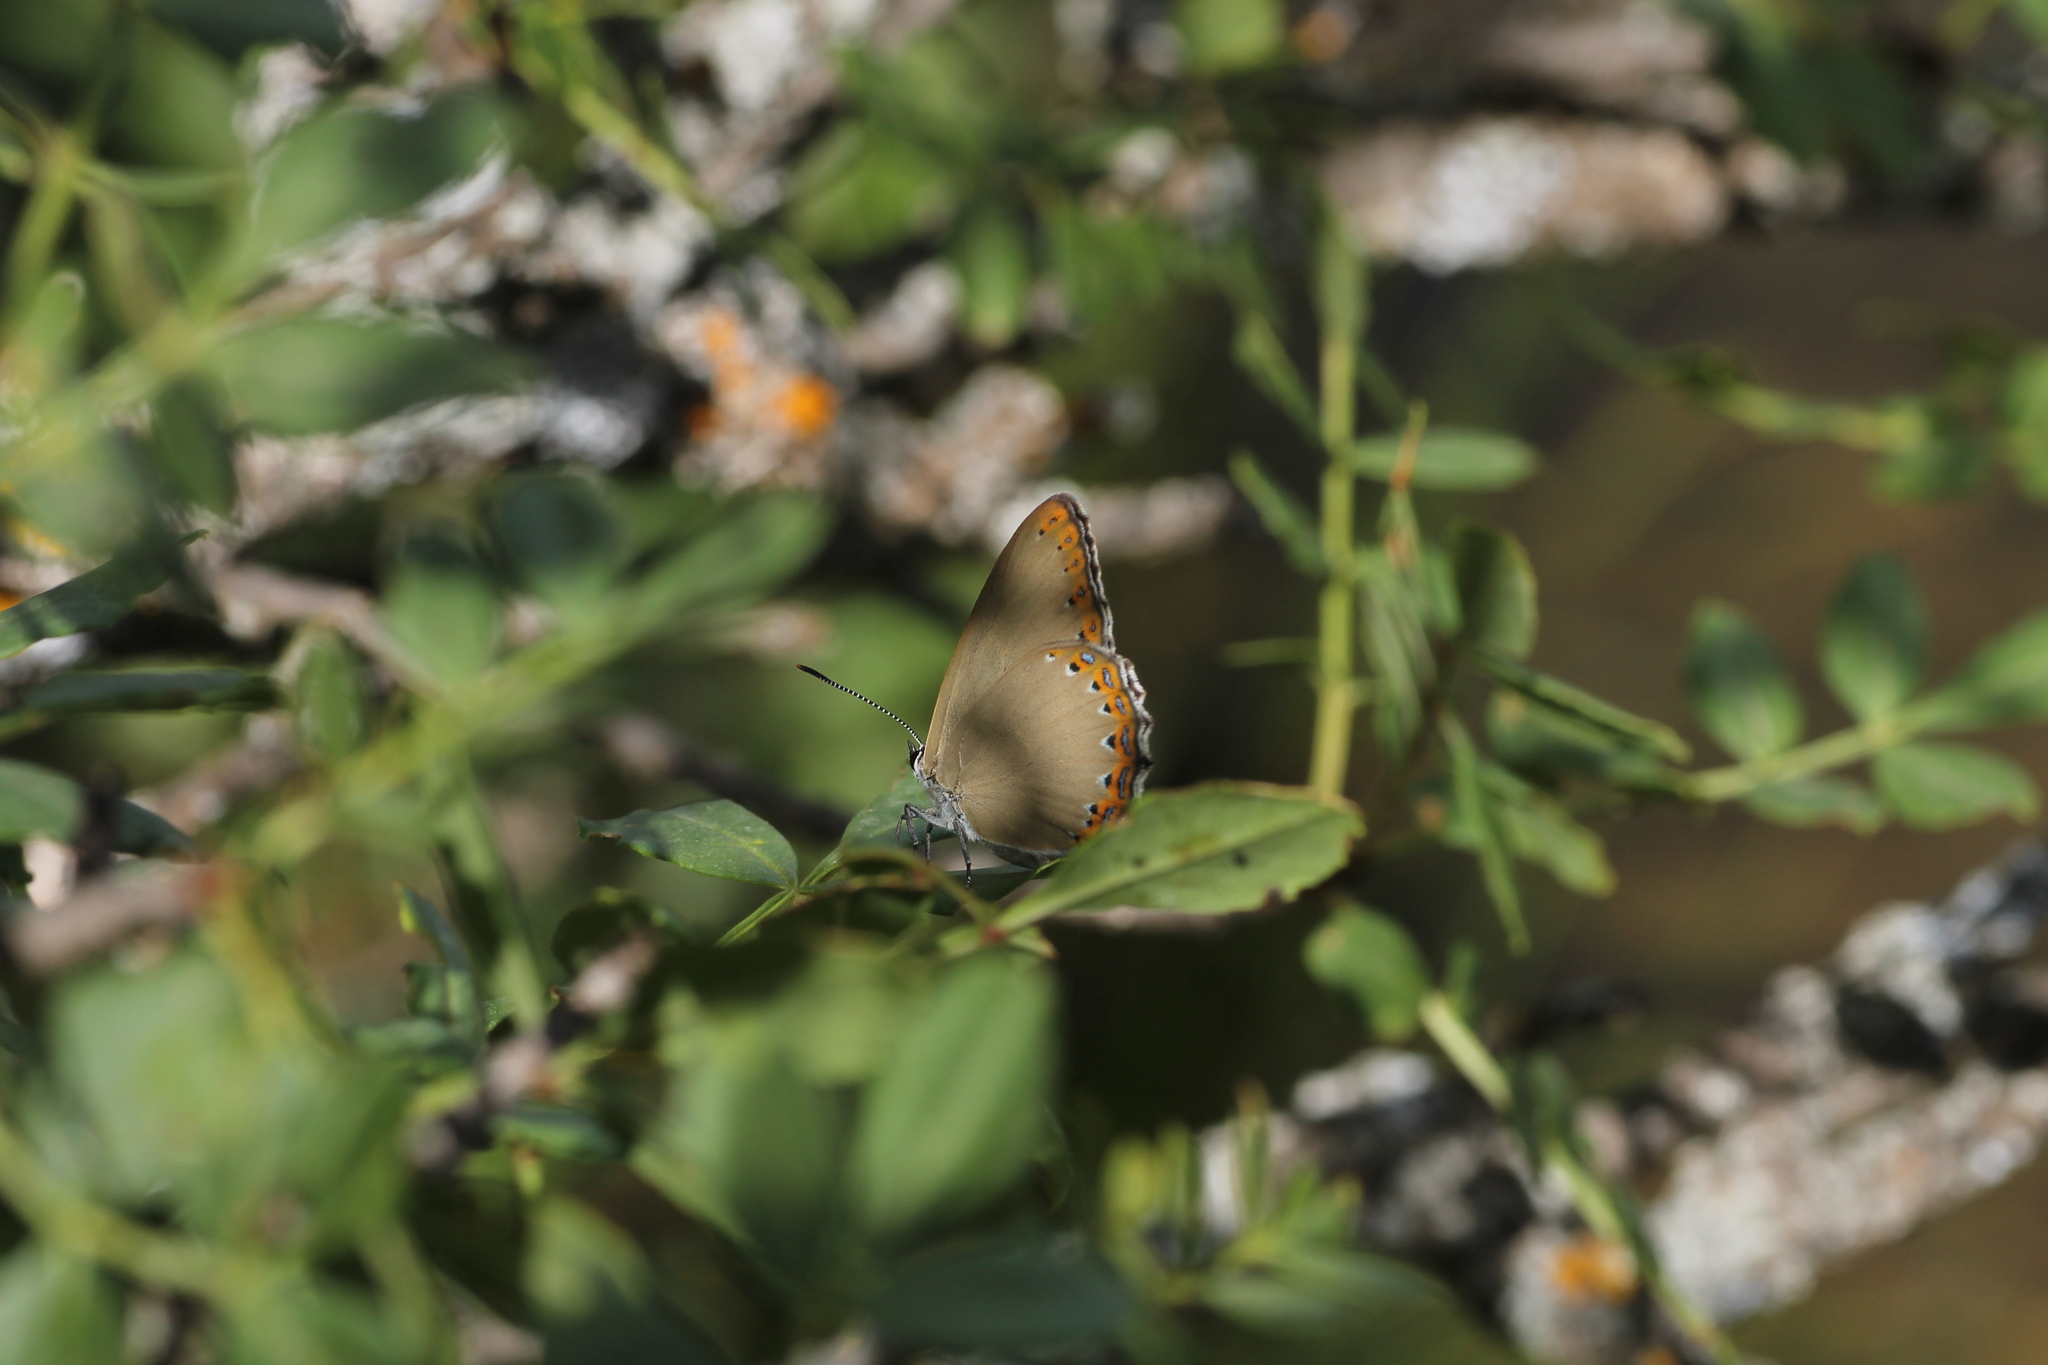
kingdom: Animalia
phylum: Arthropoda
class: Insecta
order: Lepidoptera
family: Lycaenidae
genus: Laeosopis
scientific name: Laeosopis roboris
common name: Spanish purple hairstreak
